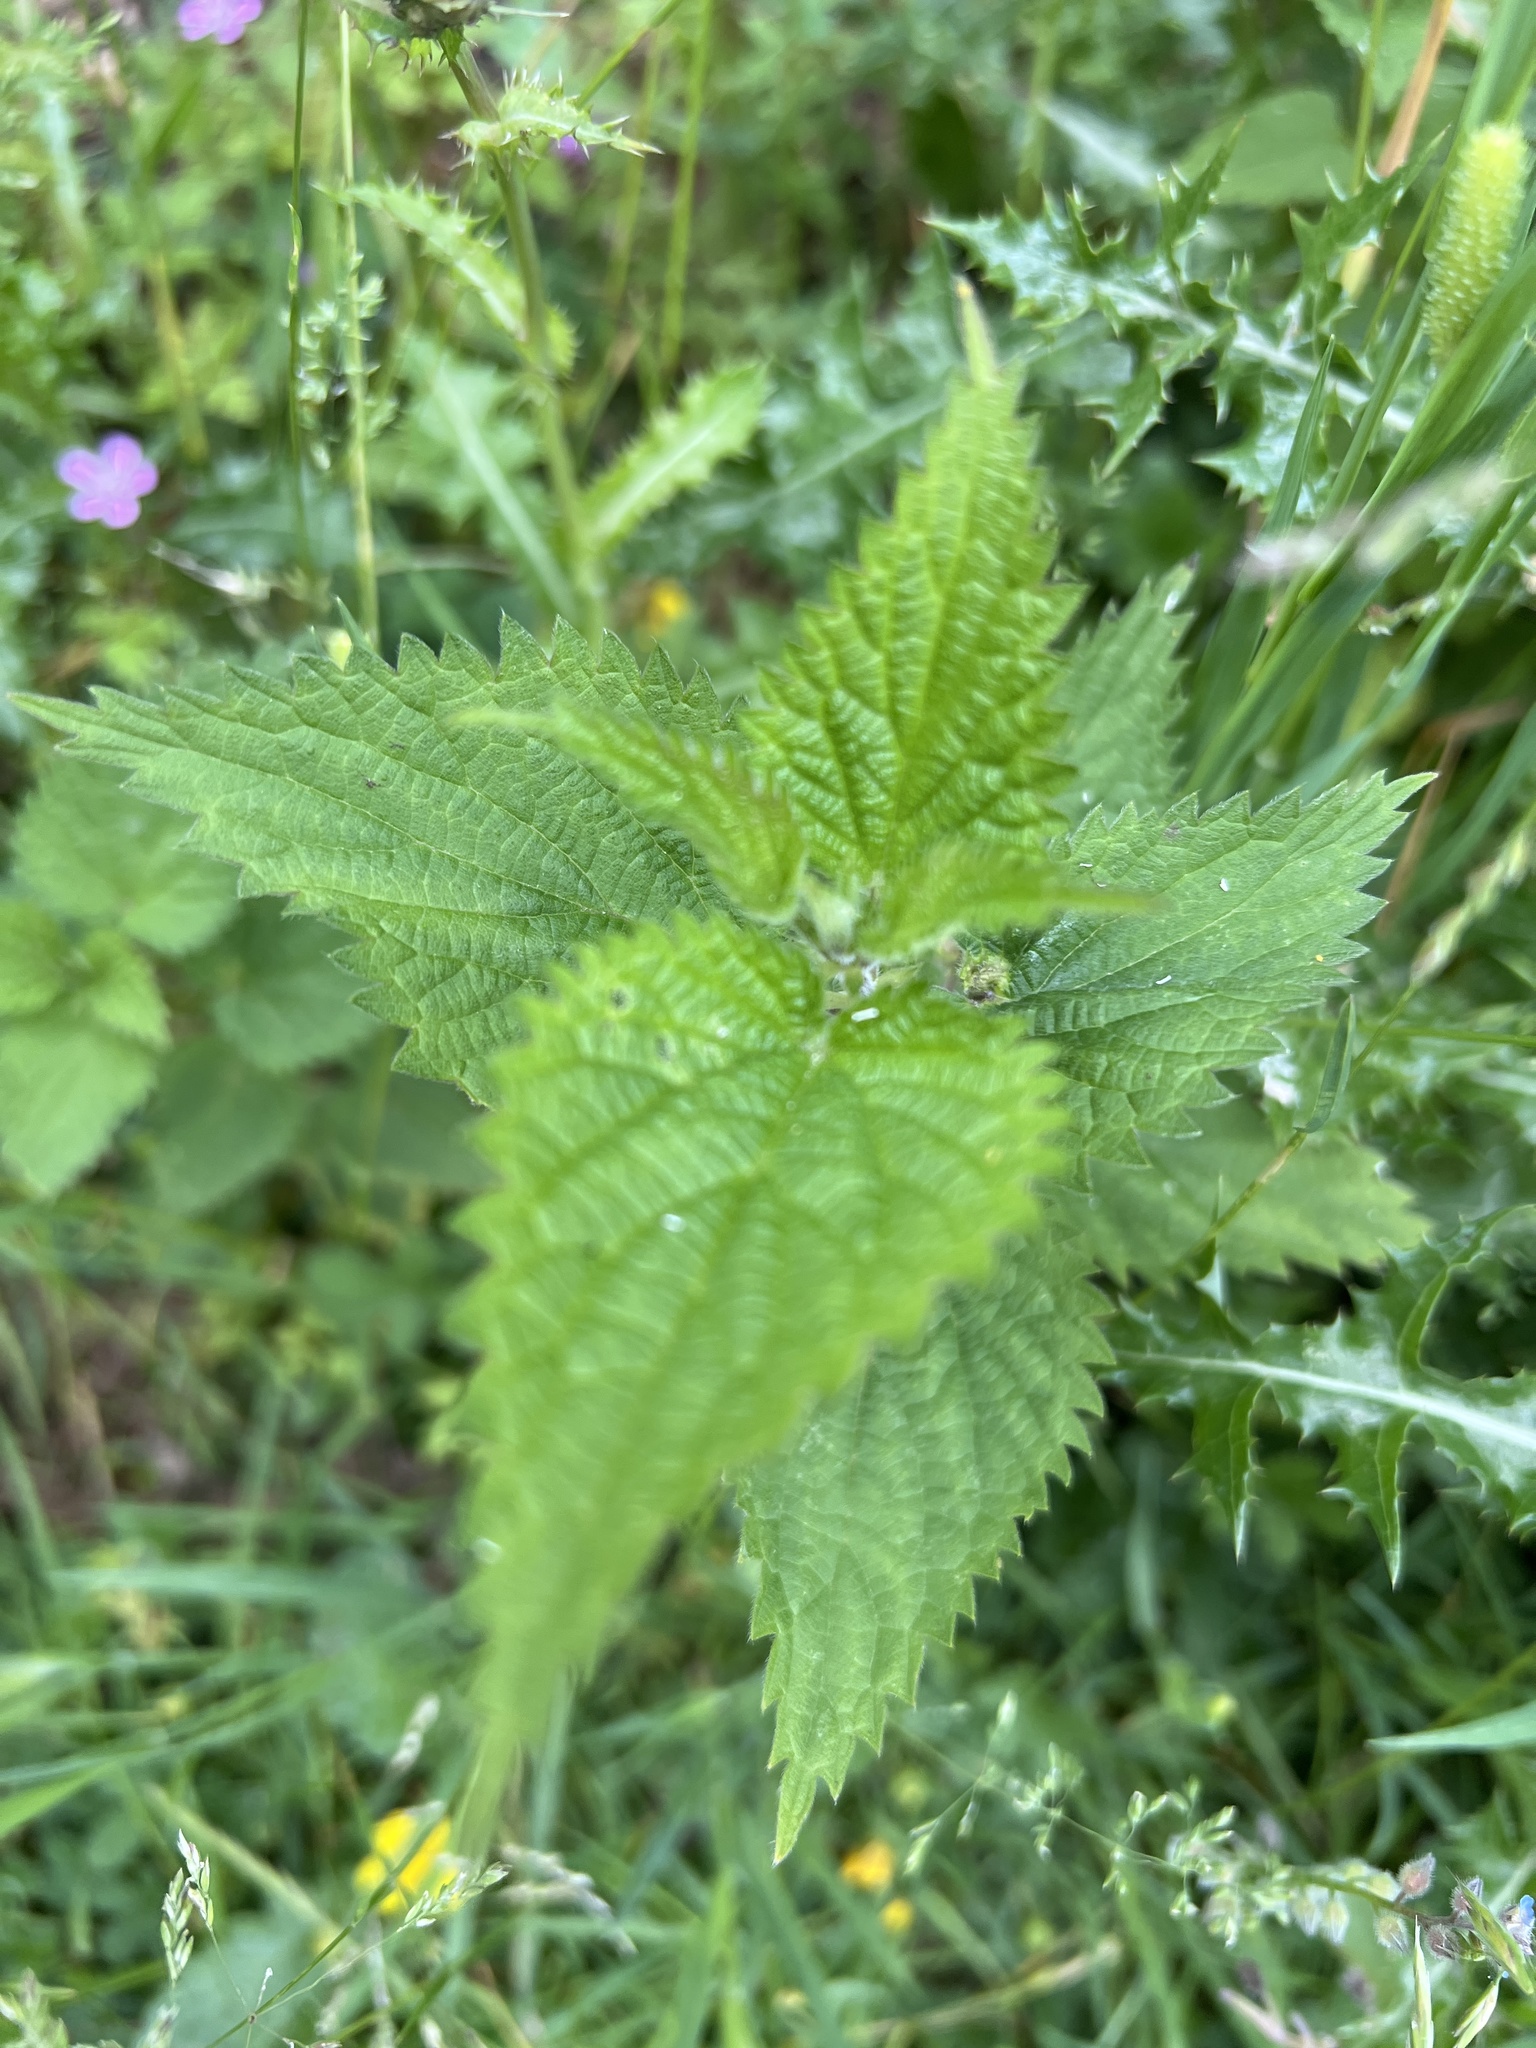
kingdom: Plantae
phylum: Tracheophyta
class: Magnoliopsida
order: Rosales
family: Urticaceae
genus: Urtica
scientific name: Urtica dioica
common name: Common nettle
